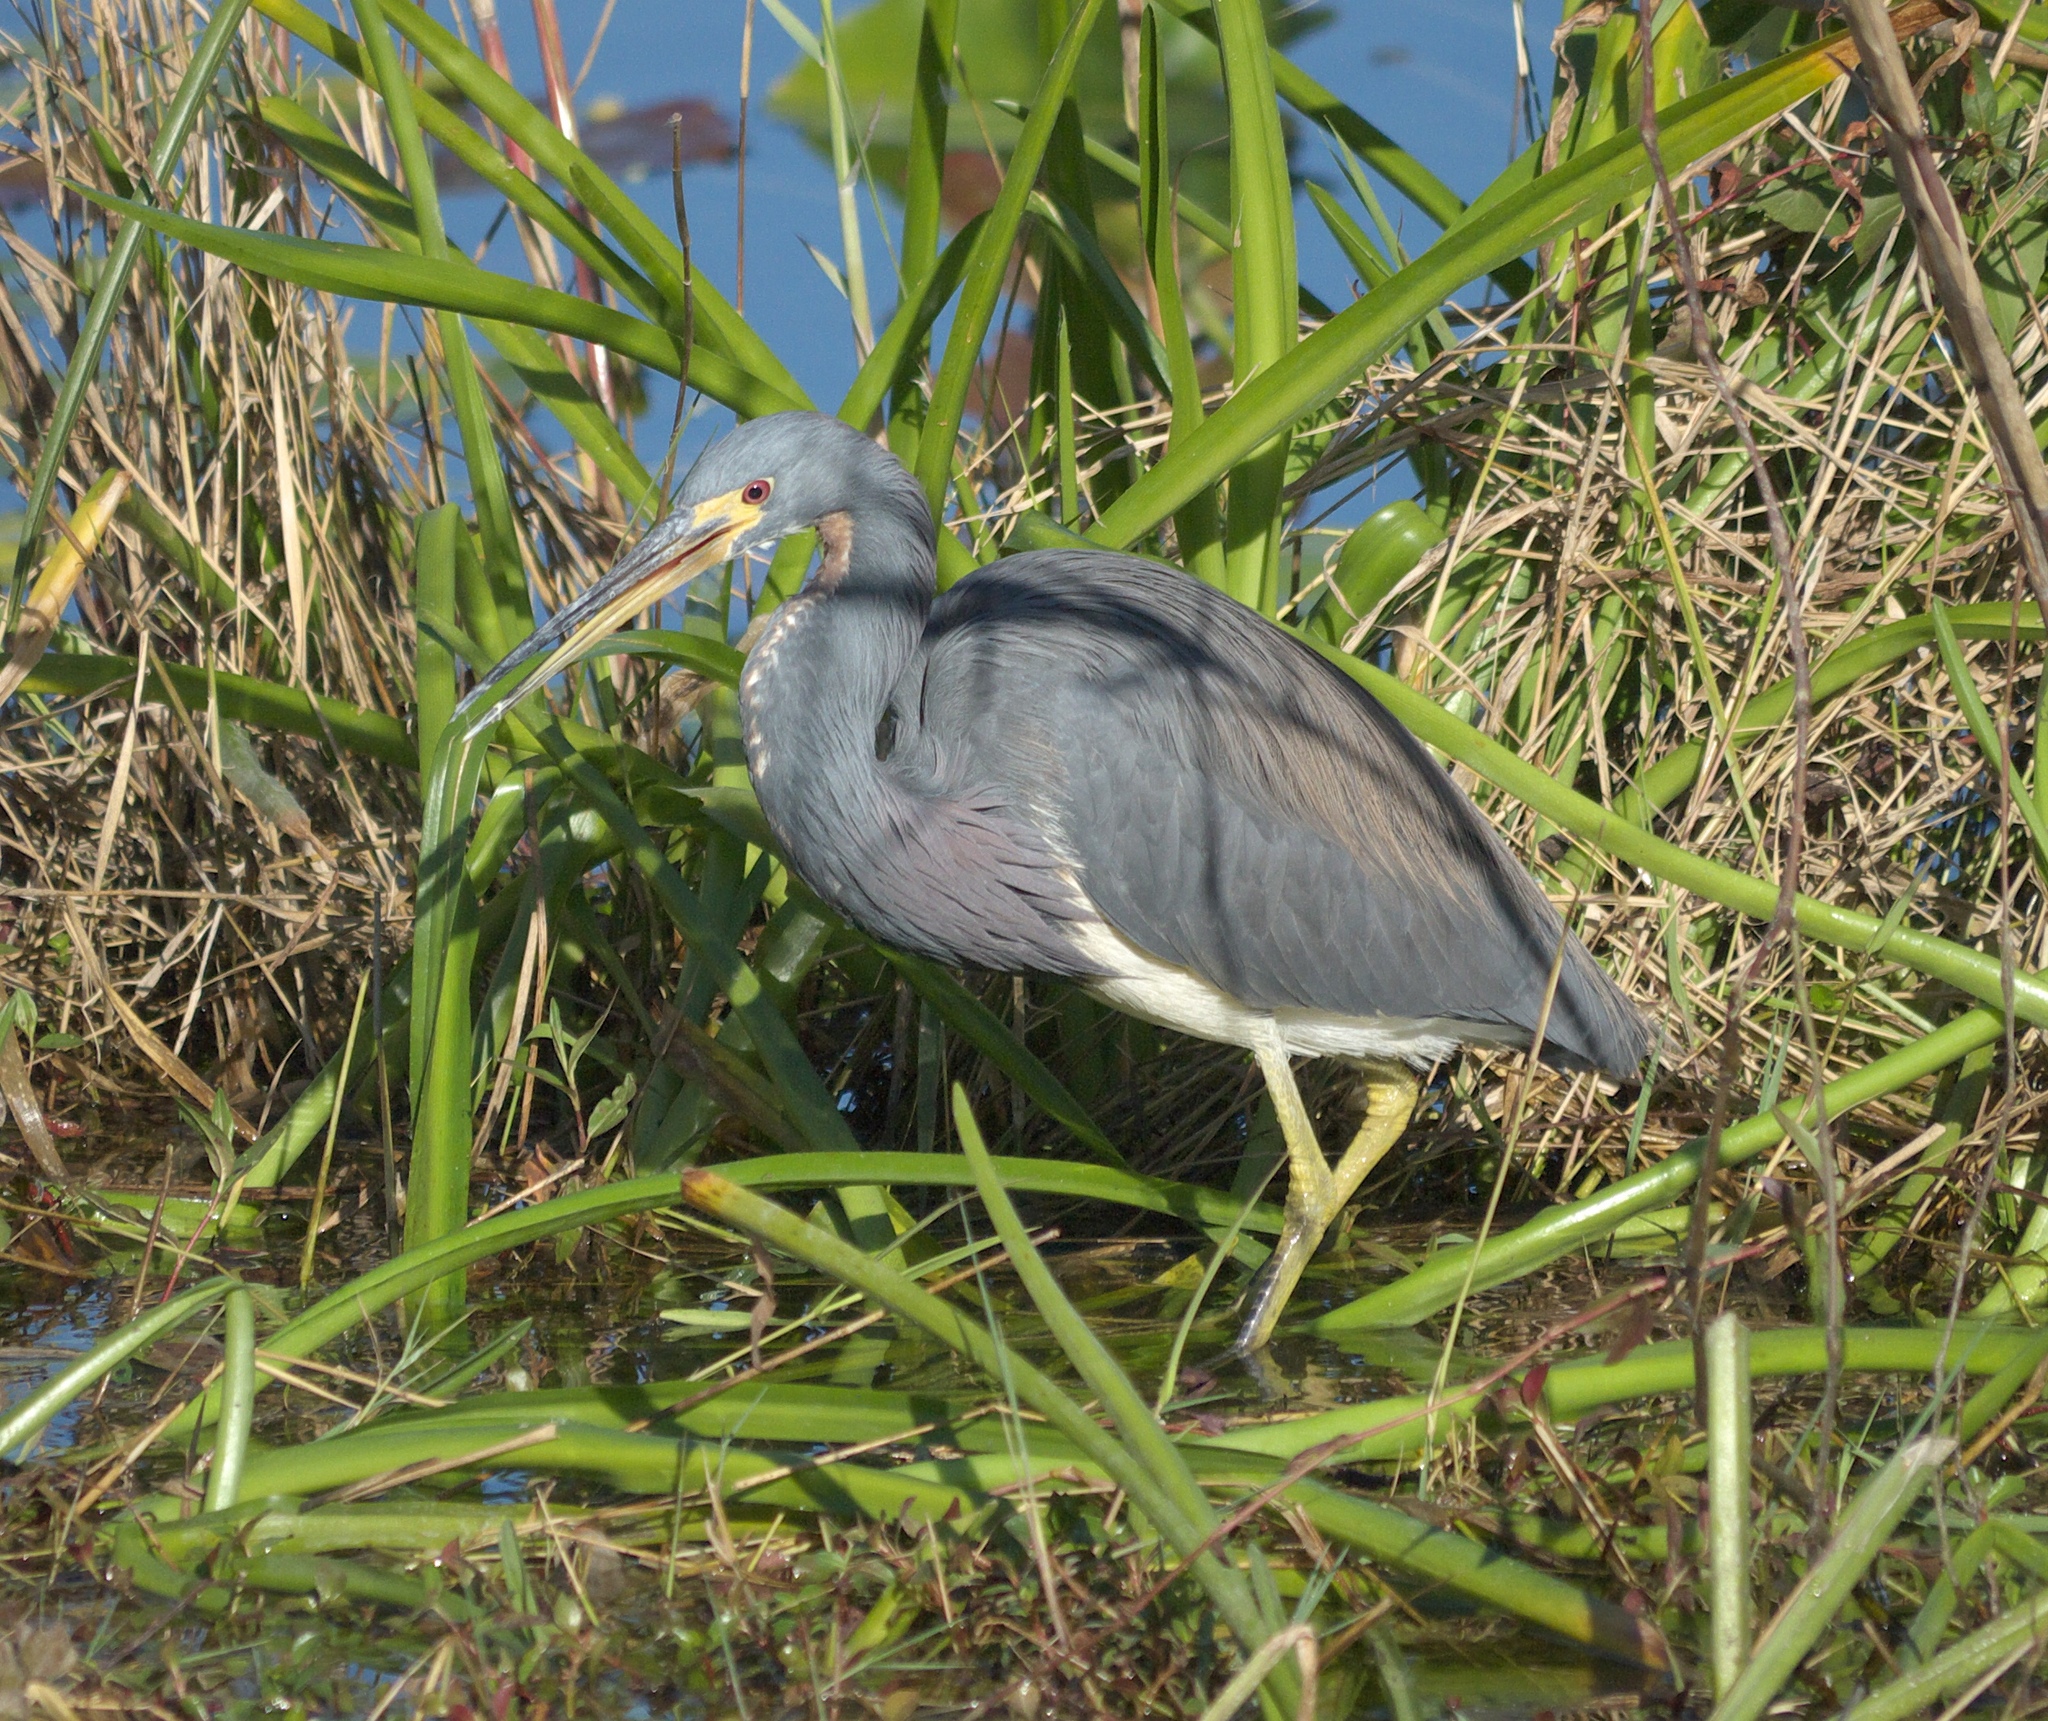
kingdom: Animalia
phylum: Chordata
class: Aves
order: Pelecaniformes
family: Ardeidae
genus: Egretta
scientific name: Egretta tricolor
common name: Tricolored heron
